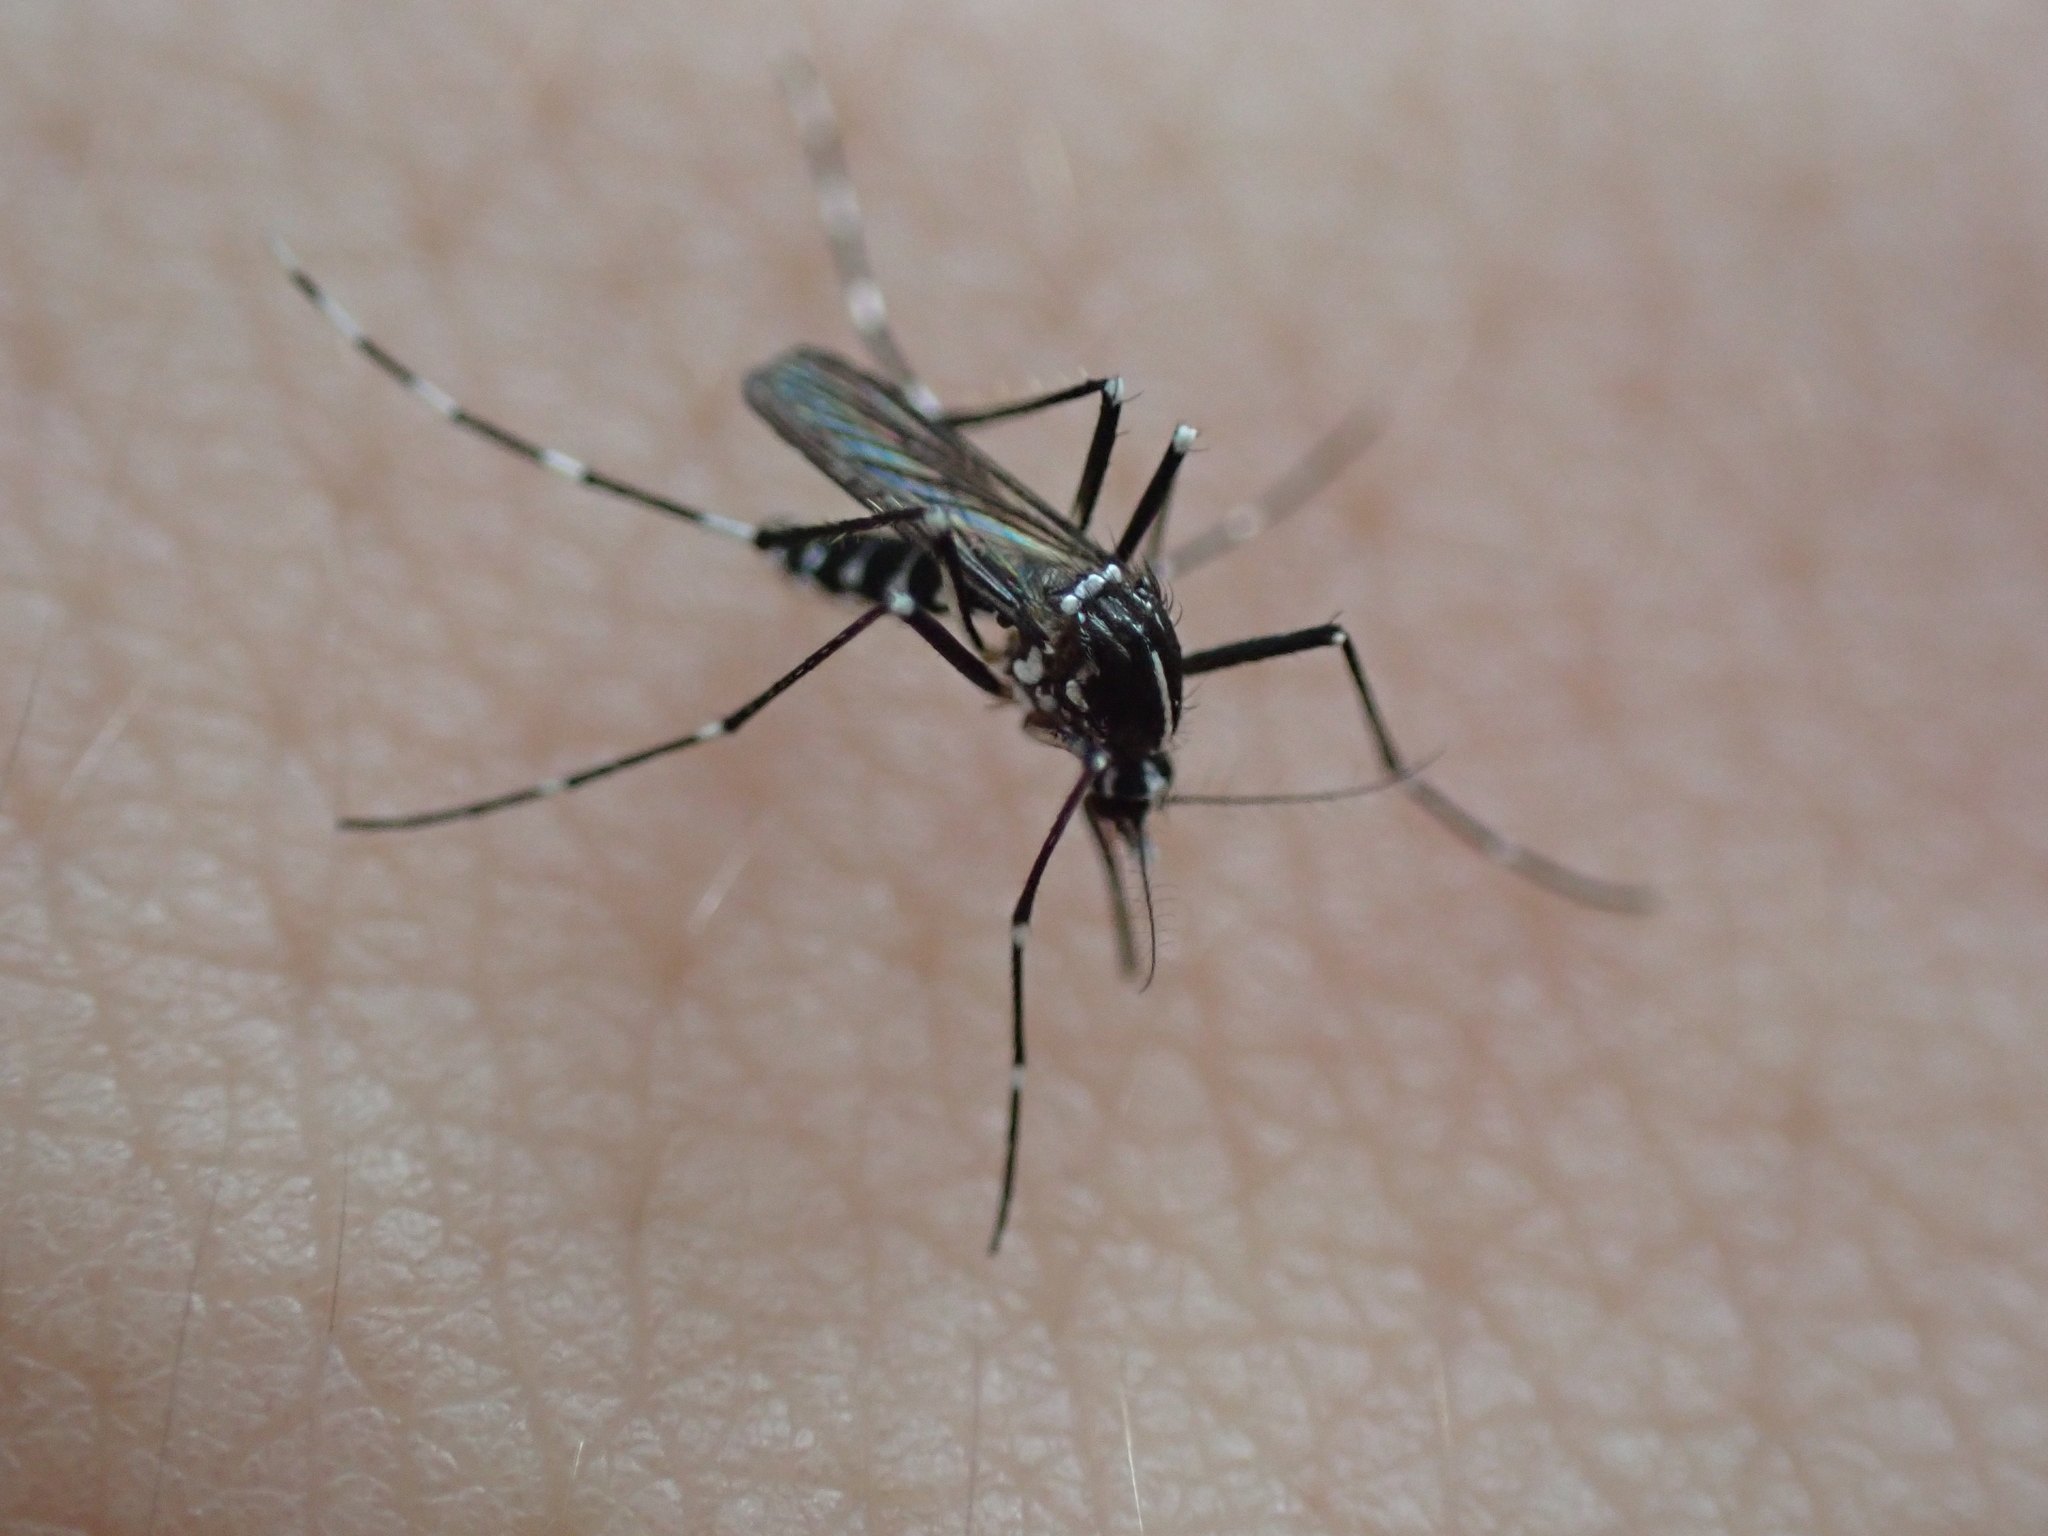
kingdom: Animalia
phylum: Arthropoda
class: Insecta
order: Diptera
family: Culicidae
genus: Aedes
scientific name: Aedes albopictus
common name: Tiger mosquito
